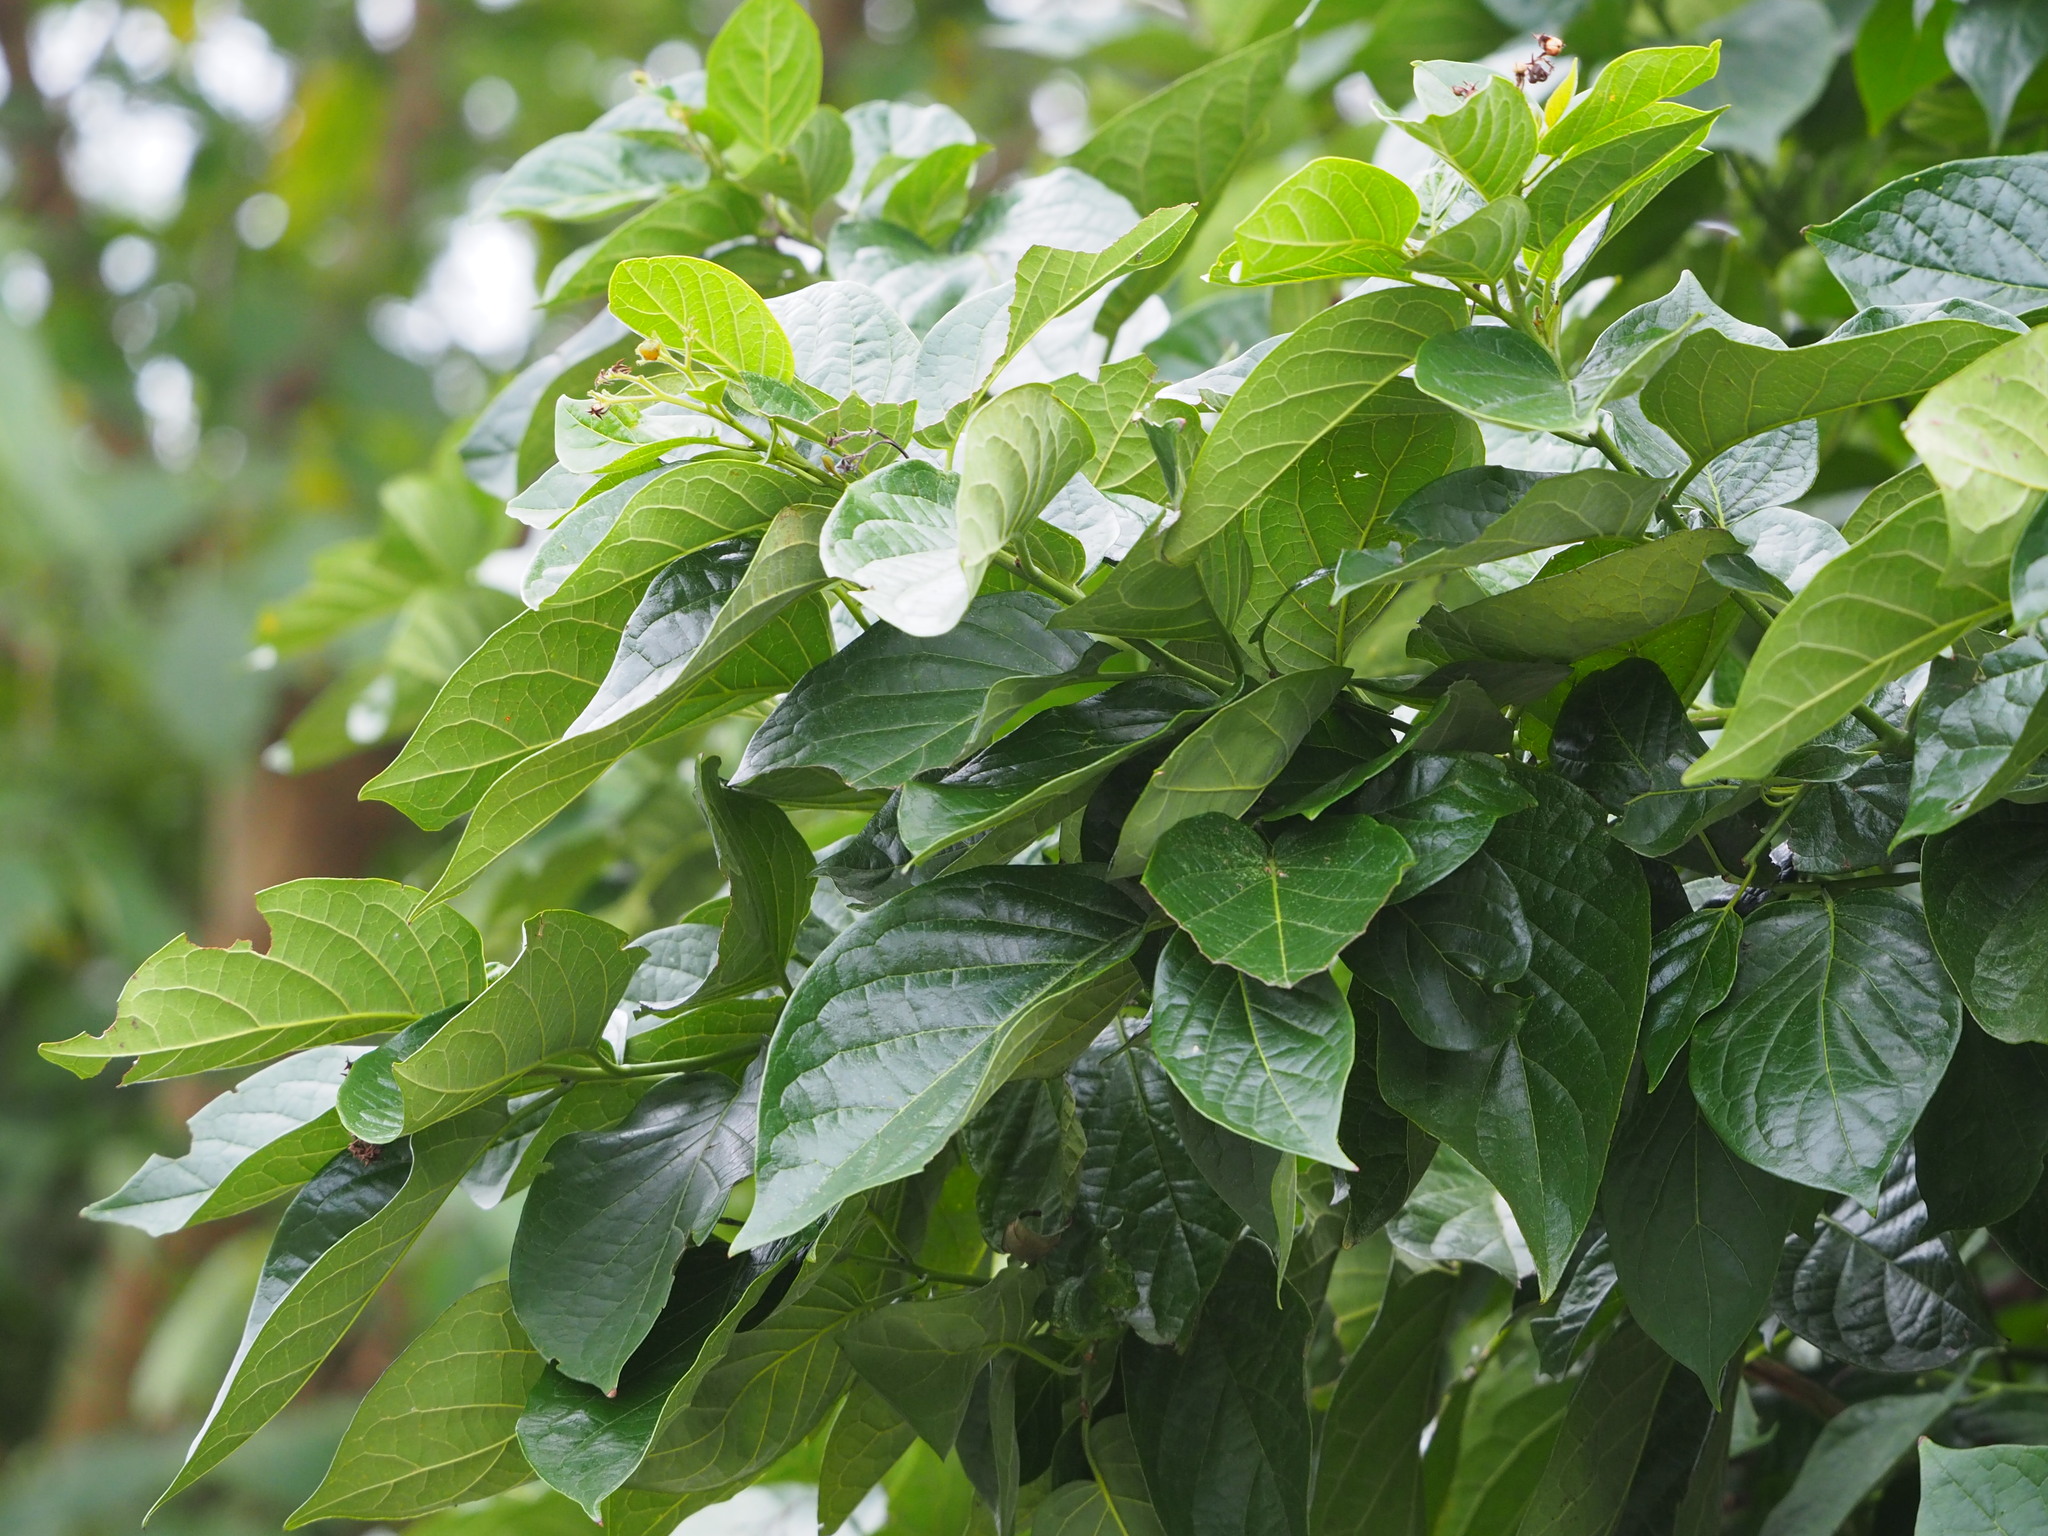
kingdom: Plantae
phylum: Tracheophyta
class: Magnoliopsida
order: Boraginales
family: Ehretiaceae
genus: Ehretia
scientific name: Ehretia resinosa
